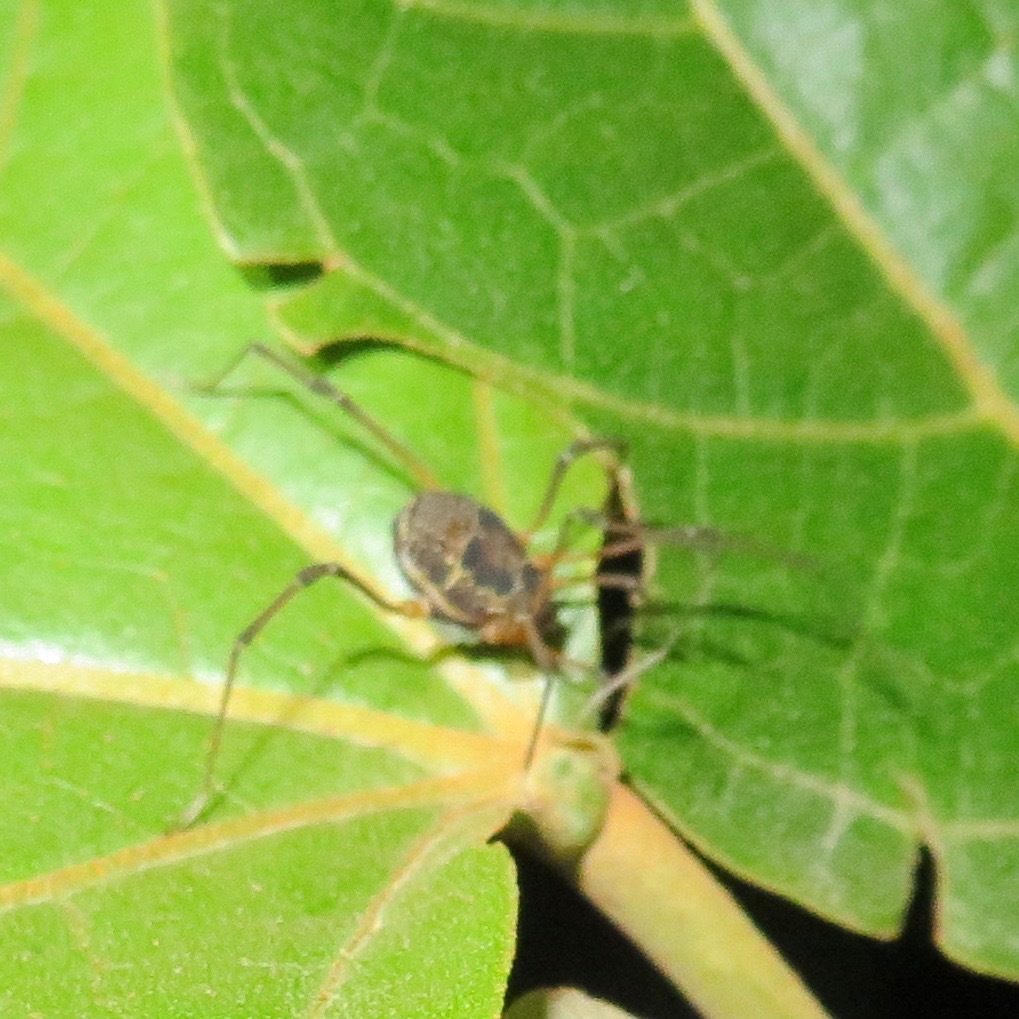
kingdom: Animalia
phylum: Arthropoda
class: Arachnida
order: Opiliones
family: Cosmetidae
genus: Eucynortula
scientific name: Eucynortula albipunctata
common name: Harvestmen
